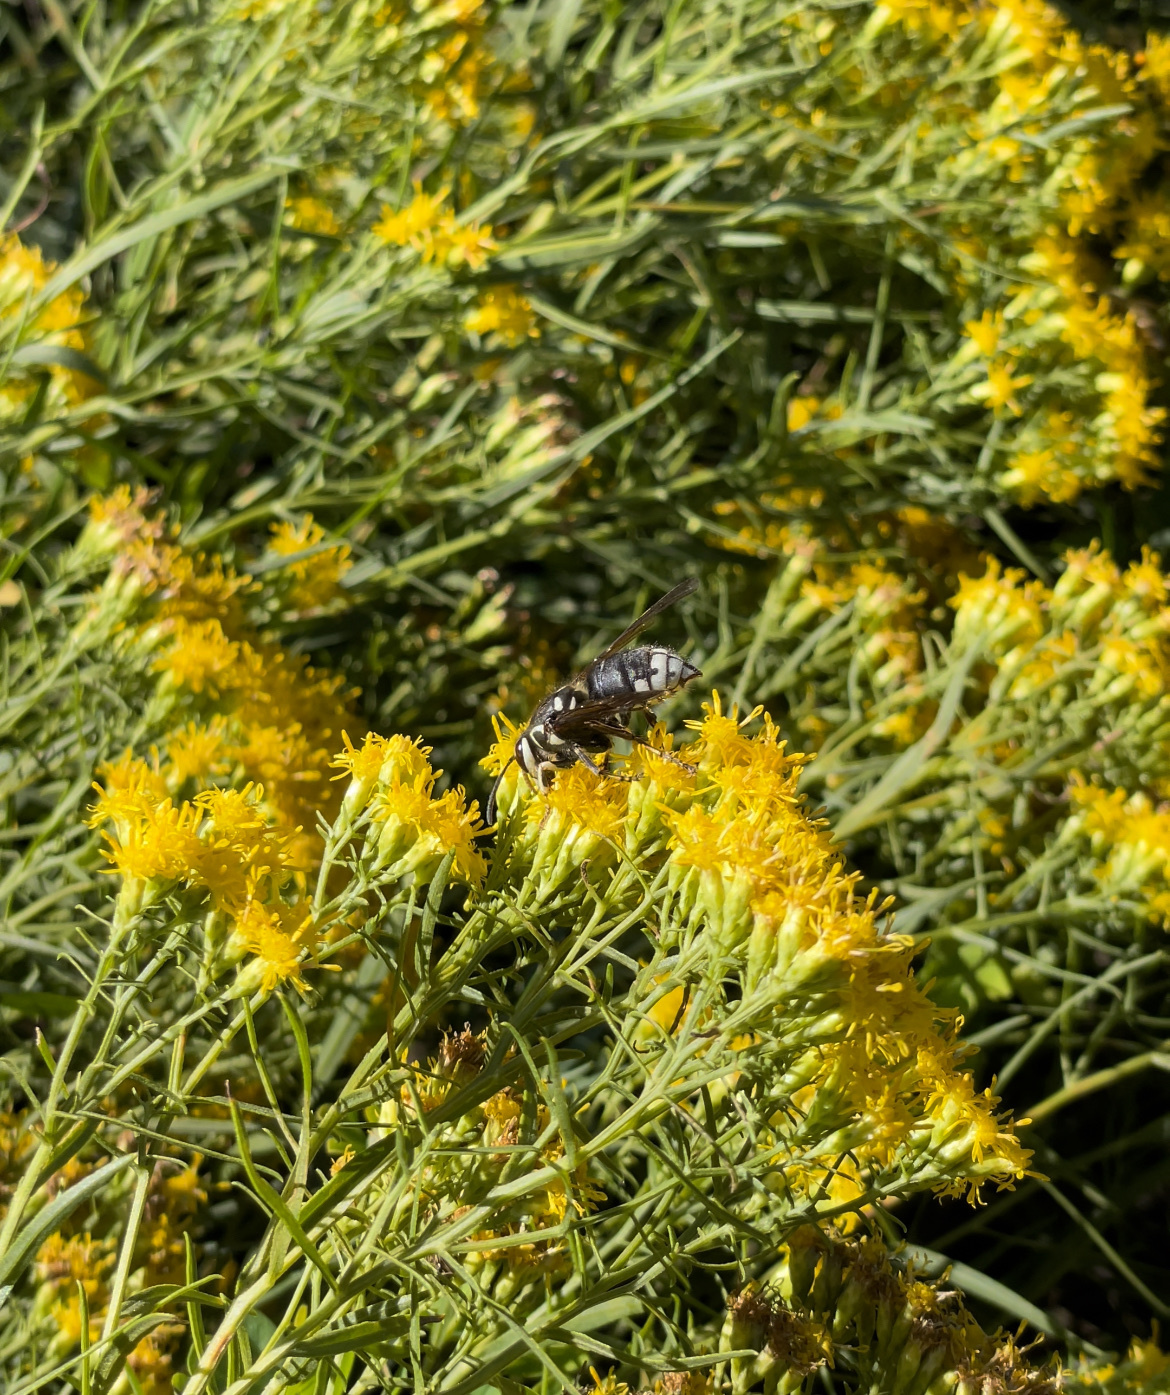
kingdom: Animalia
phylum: Arthropoda
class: Insecta
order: Hymenoptera
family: Vespidae
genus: Dolichovespula
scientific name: Dolichovespula maculata
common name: Bald-faced hornet
